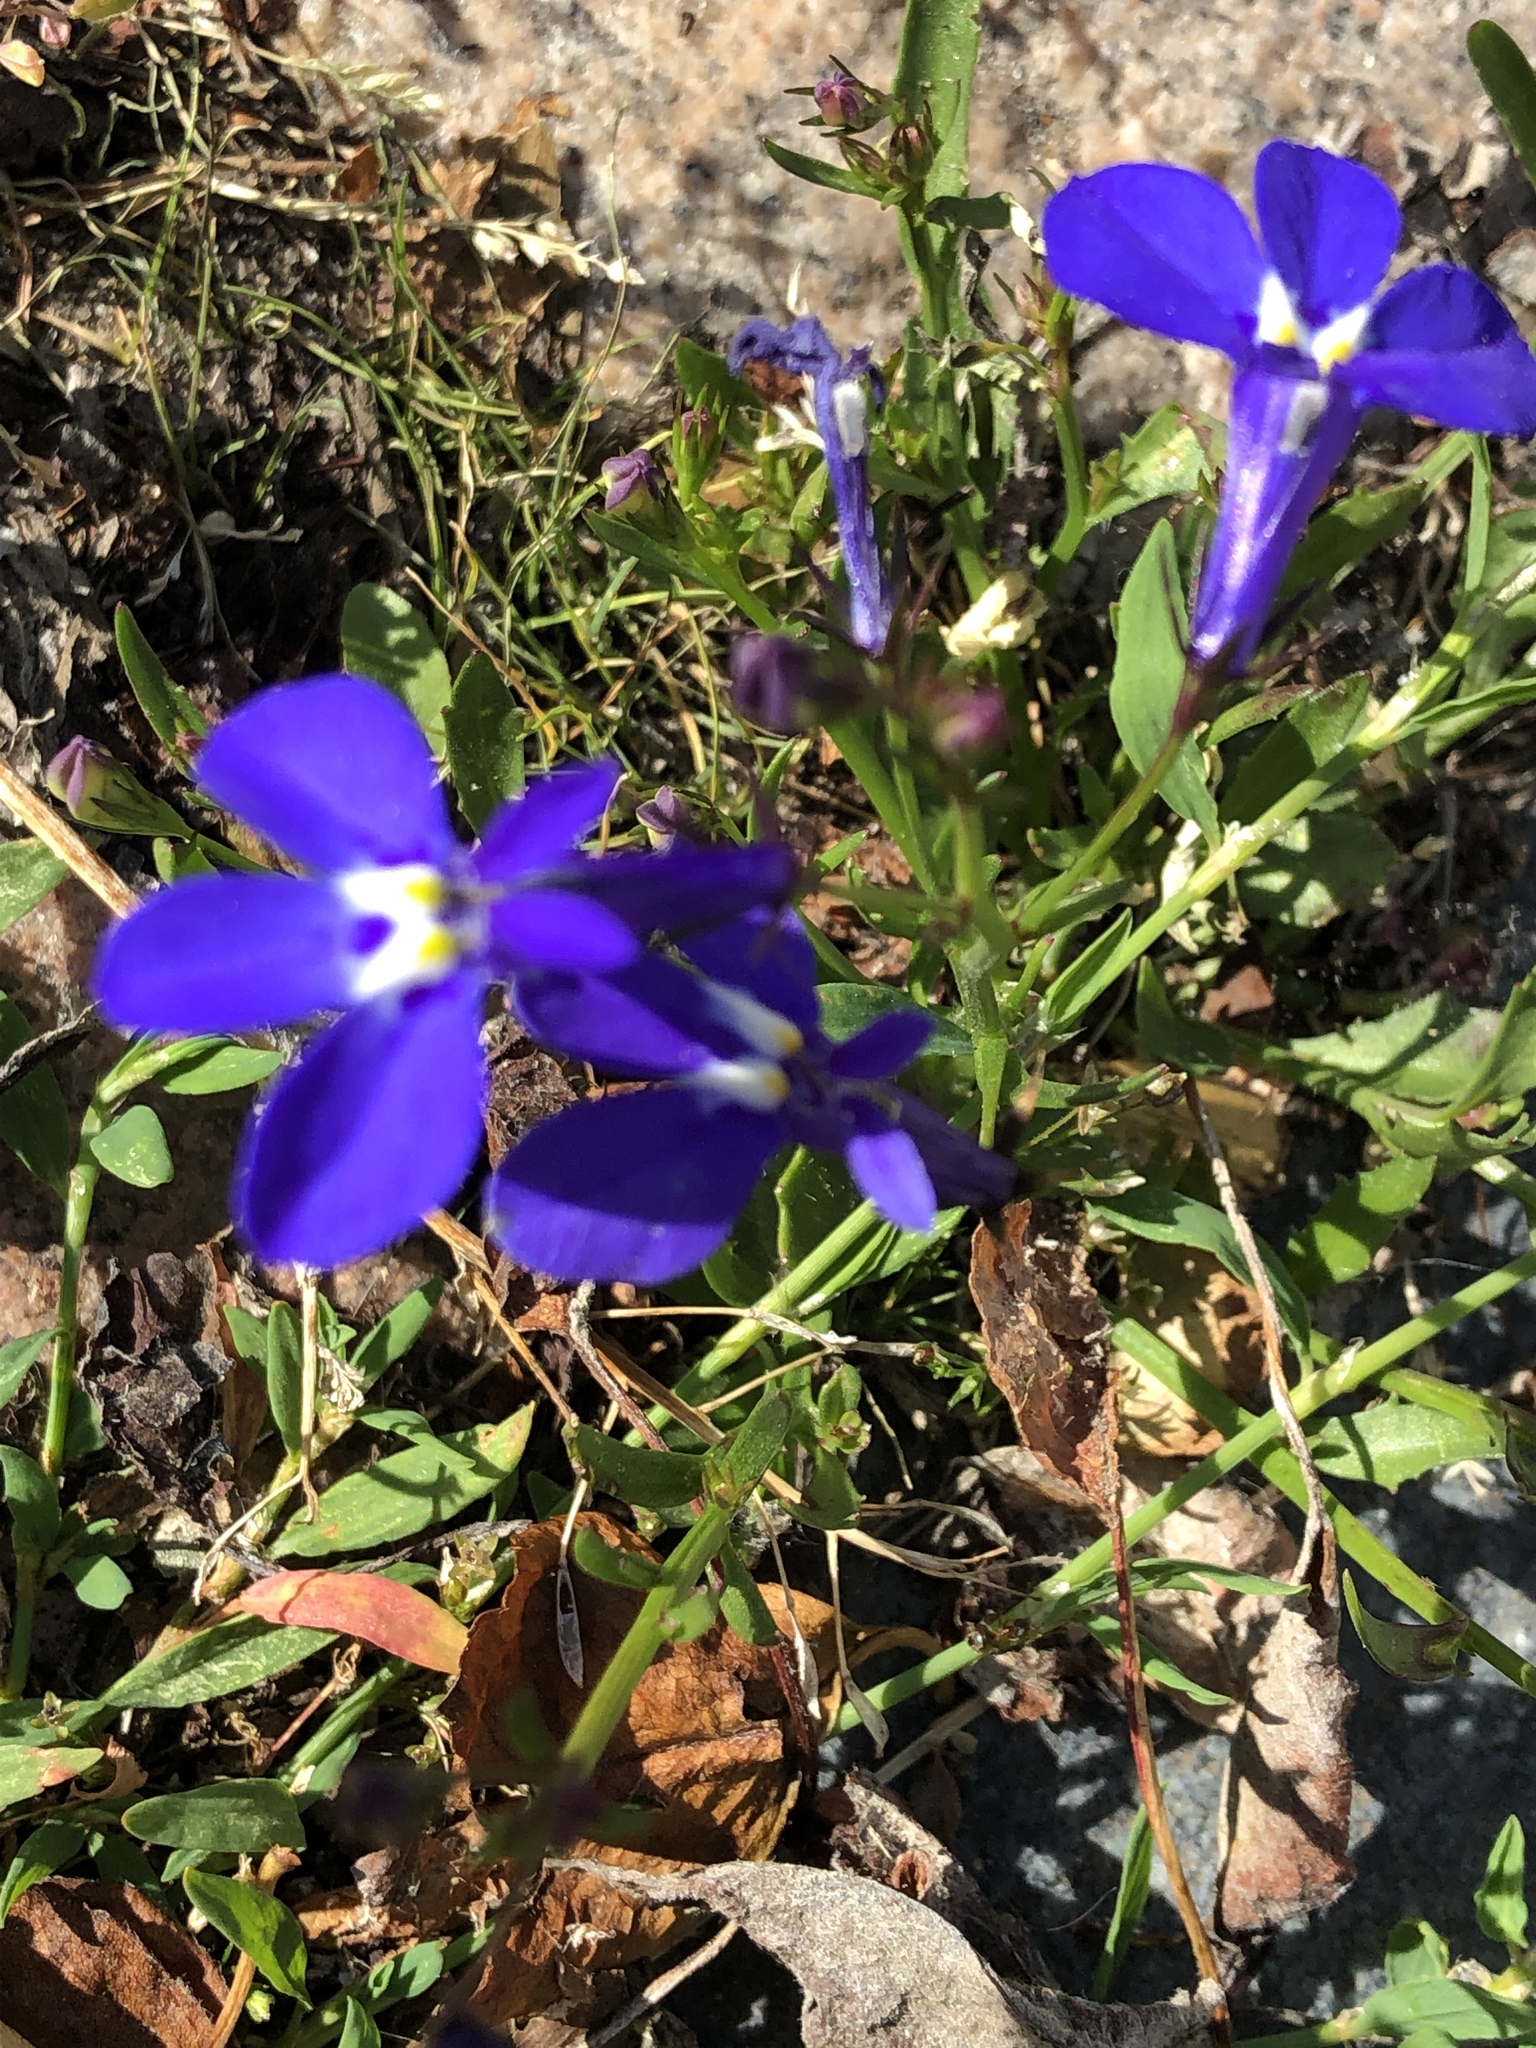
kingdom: Plantae
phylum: Tracheophyta
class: Magnoliopsida
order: Asterales
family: Campanulaceae
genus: Lobelia
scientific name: Lobelia erinus
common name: Edging lobelia
